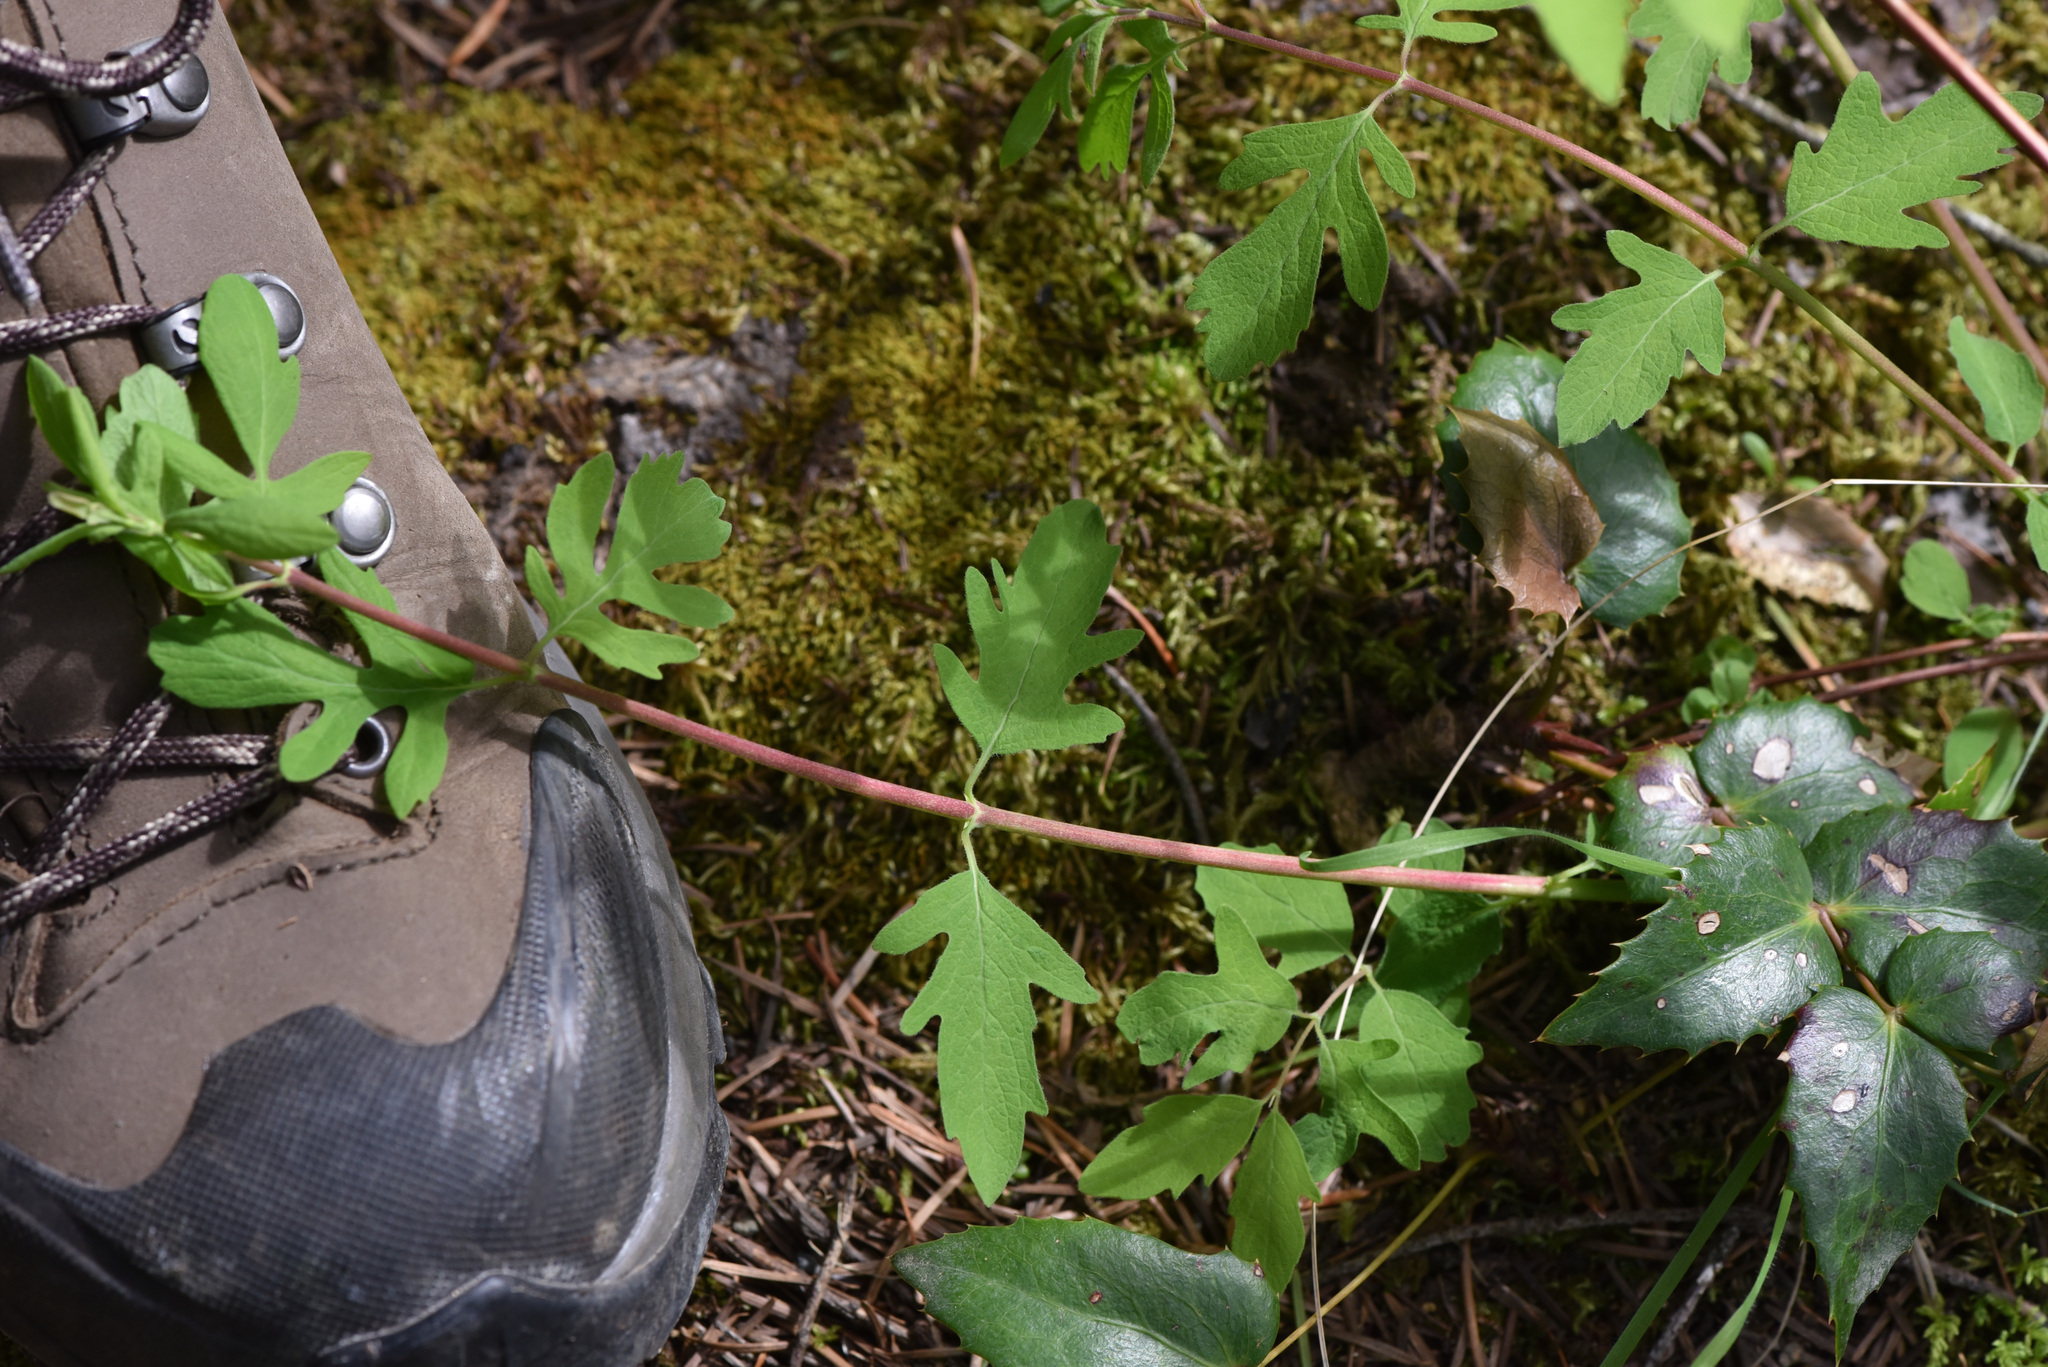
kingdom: Plantae
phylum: Tracheophyta
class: Magnoliopsida
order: Ranunculales
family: Berberidaceae
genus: Mahonia
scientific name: Mahonia nervosa
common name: Cascade oregon-grape
